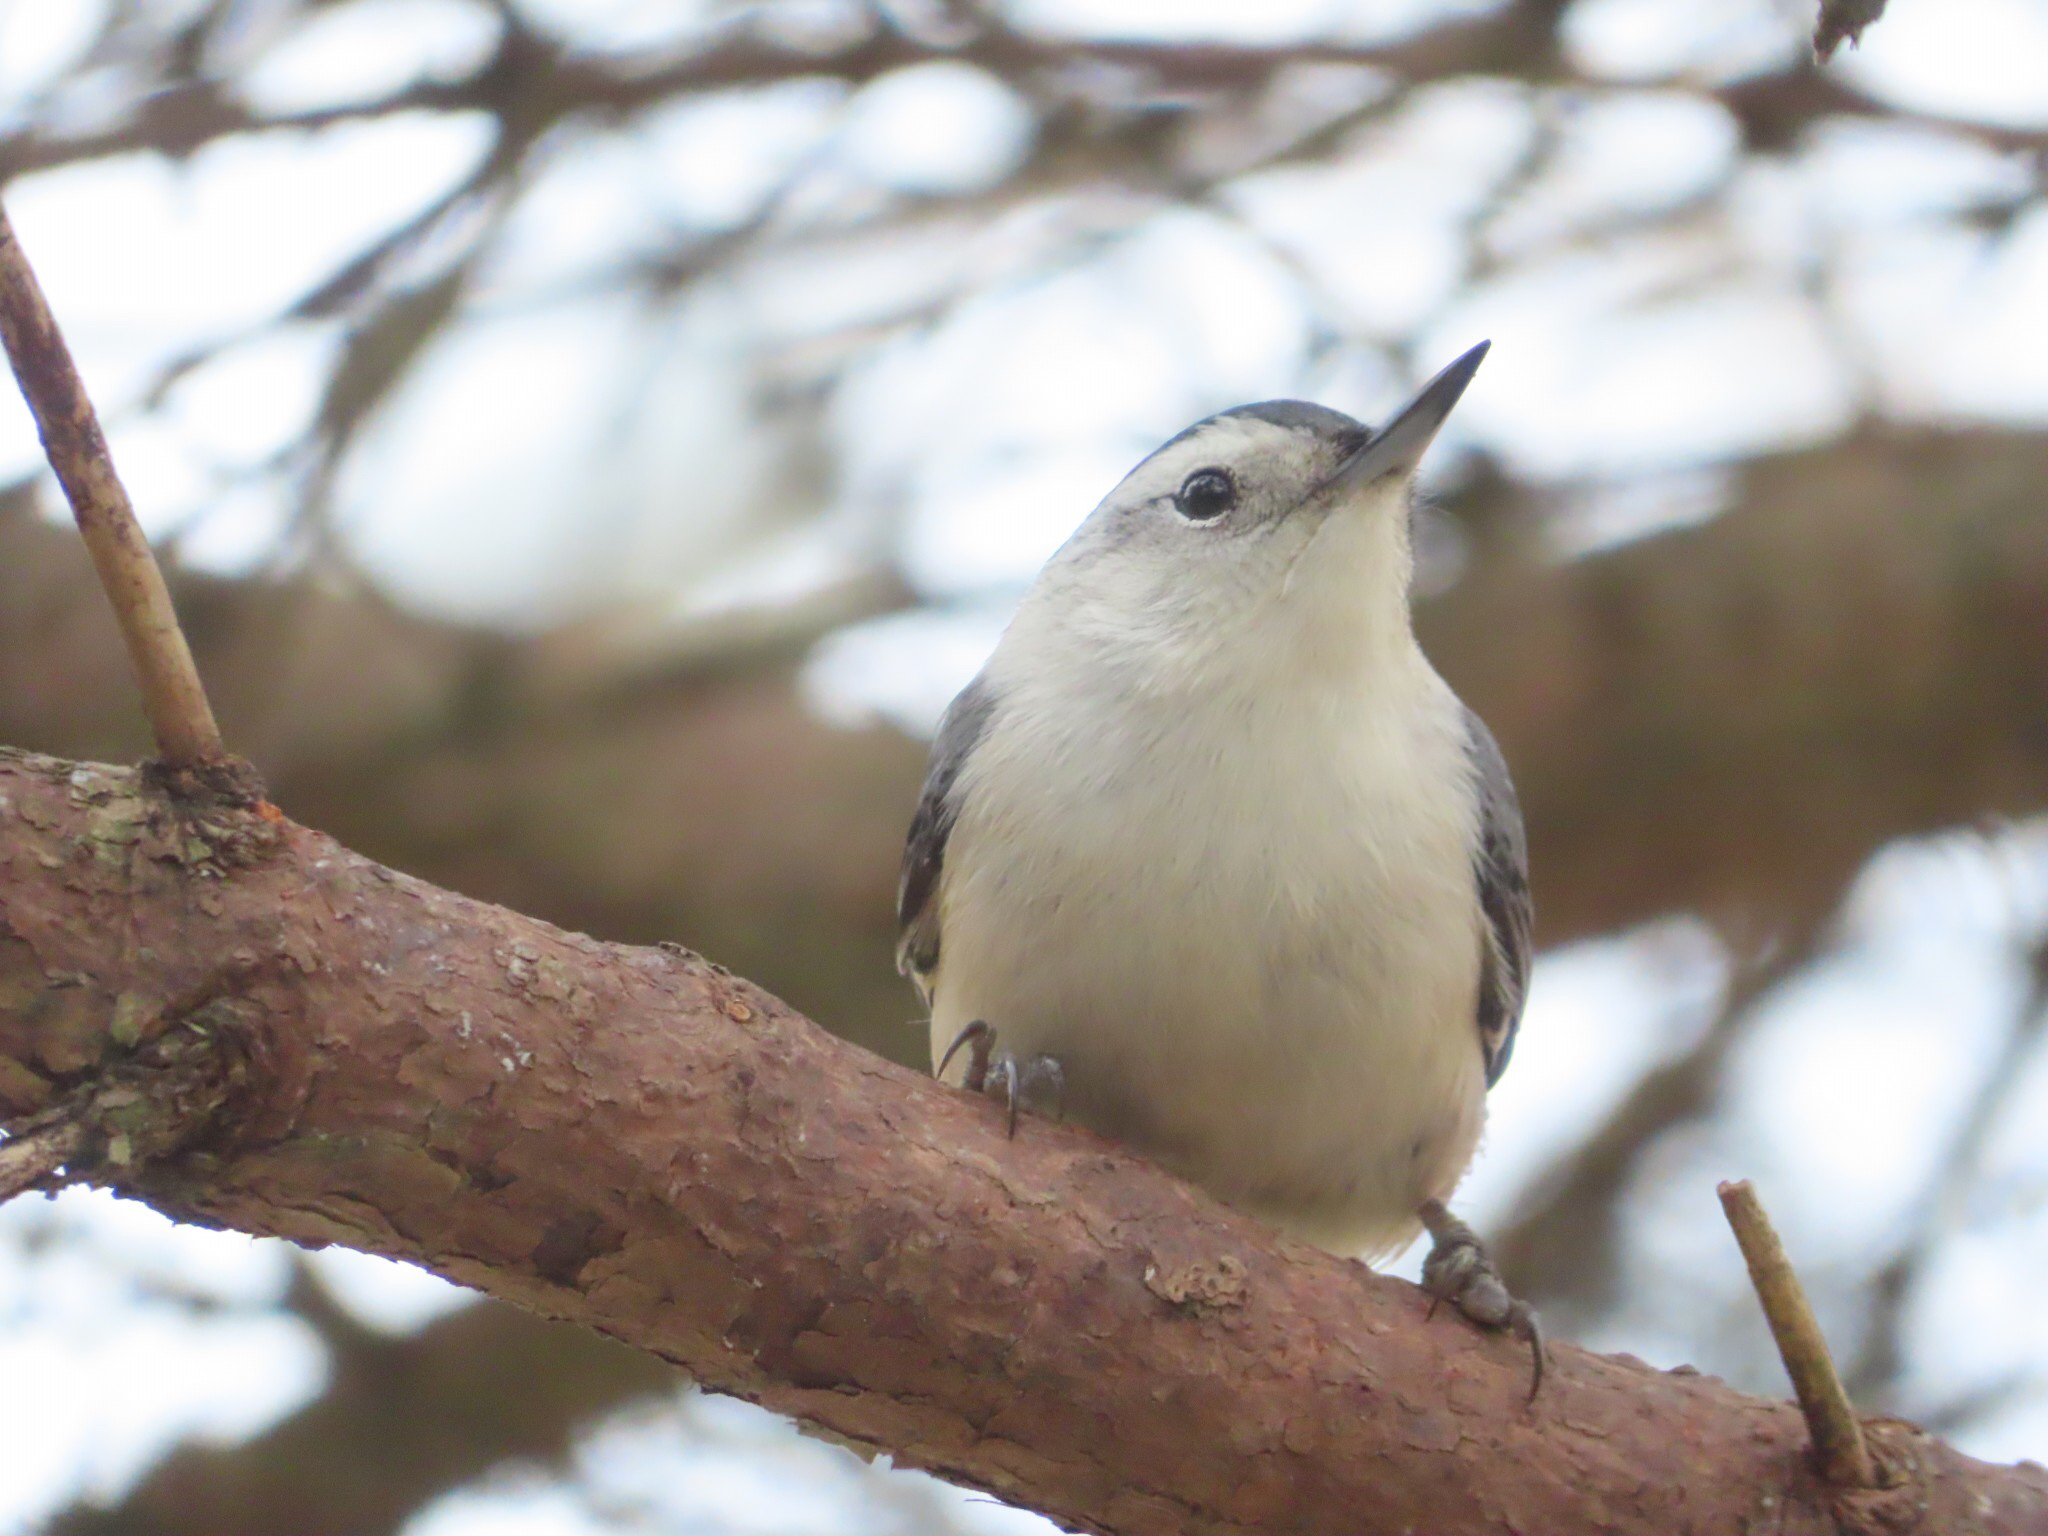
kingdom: Animalia
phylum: Chordata
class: Aves
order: Passeriformes
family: Sittidae
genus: Sitta
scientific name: Sitta carolinensis
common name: White-breasted nuthatch
